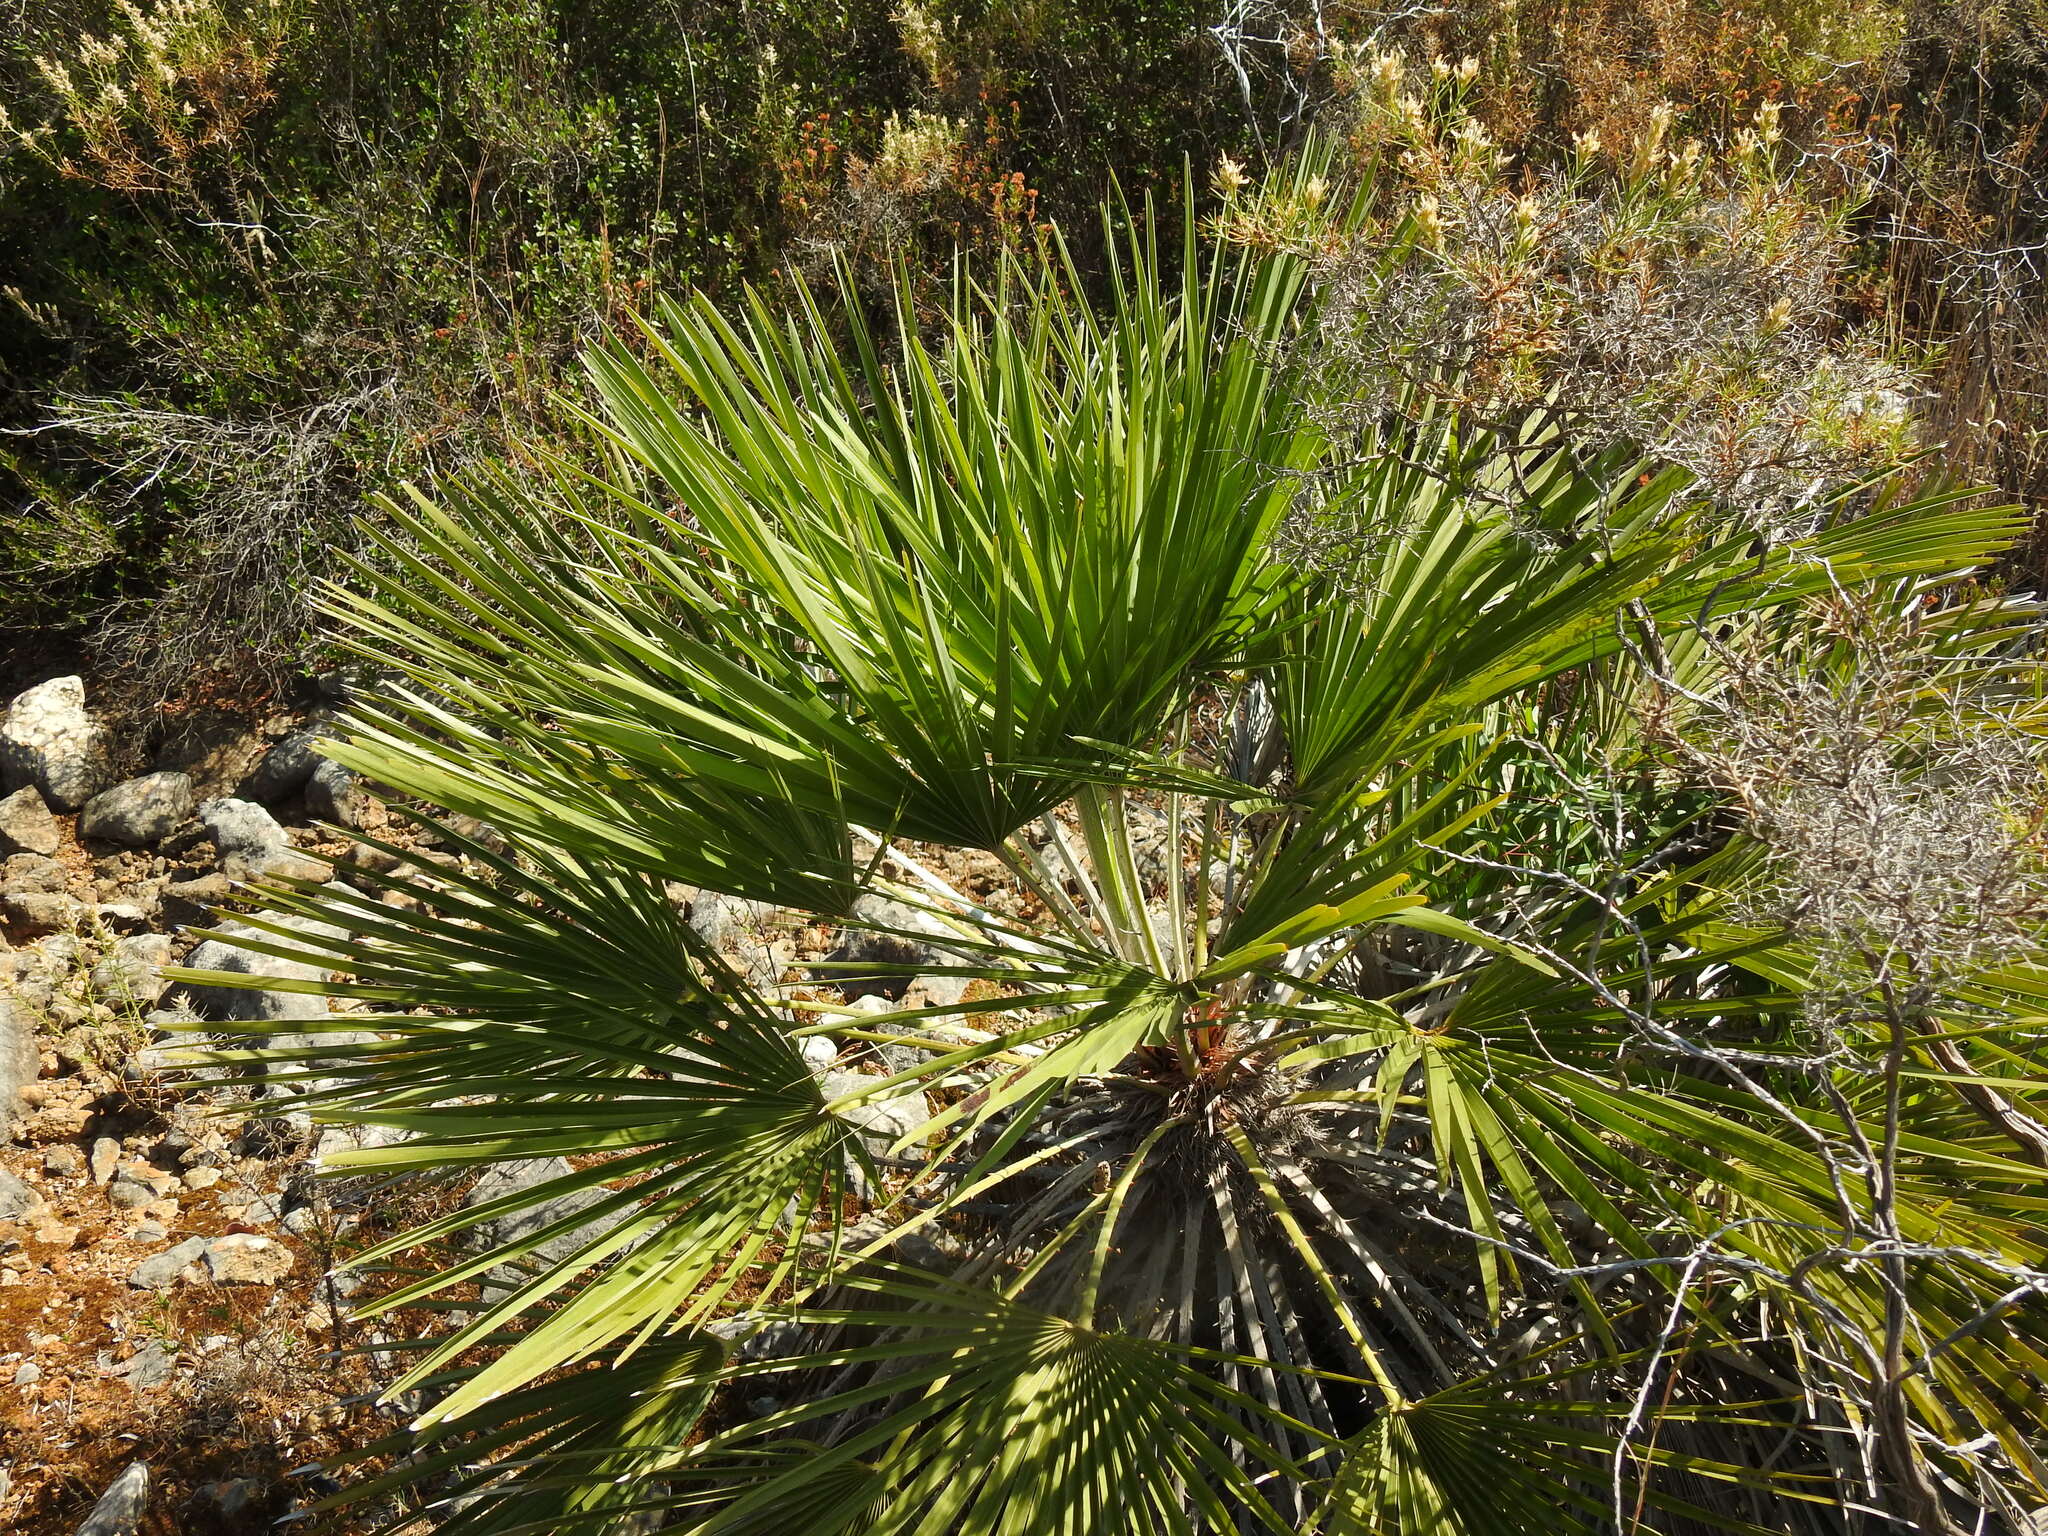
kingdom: Plantae
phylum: Tracheophyta
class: Liliopsida
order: Arecales
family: Arecaceae
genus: Chamaerops
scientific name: Chamaerops humilis
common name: Dwarf fan palm
